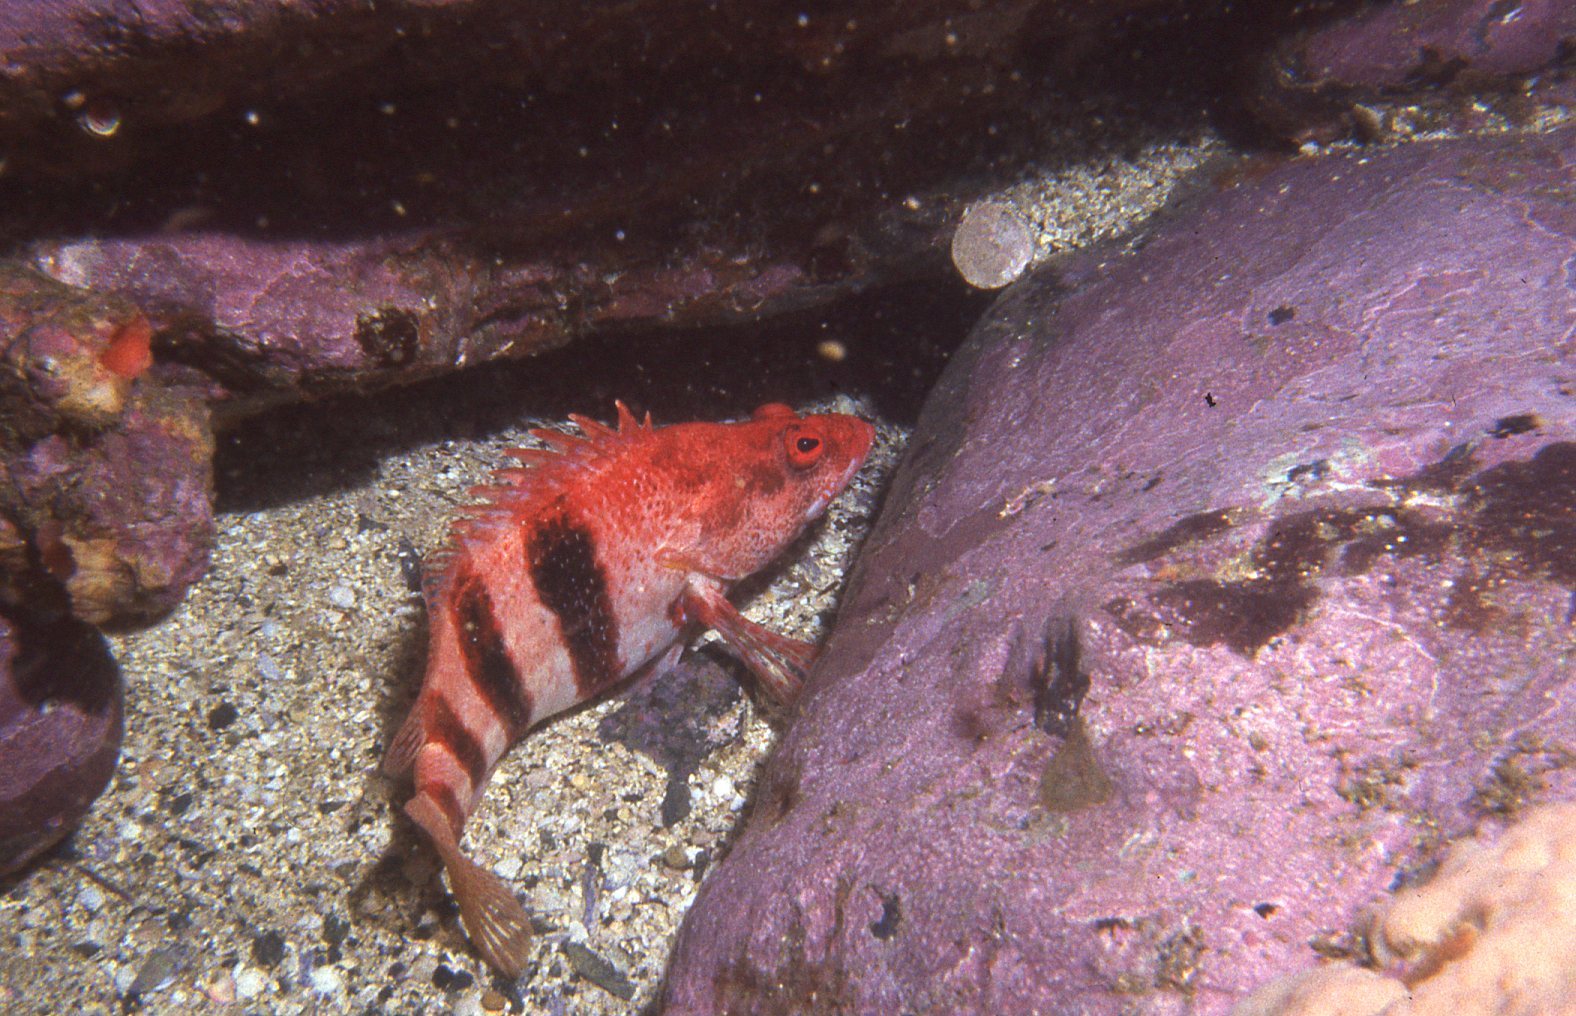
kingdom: Animalia
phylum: Chordata
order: Perciformes
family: Serranidae
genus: Hypoplectrodes
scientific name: Hypoplectrodes nigroruber
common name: Banded seaperch
